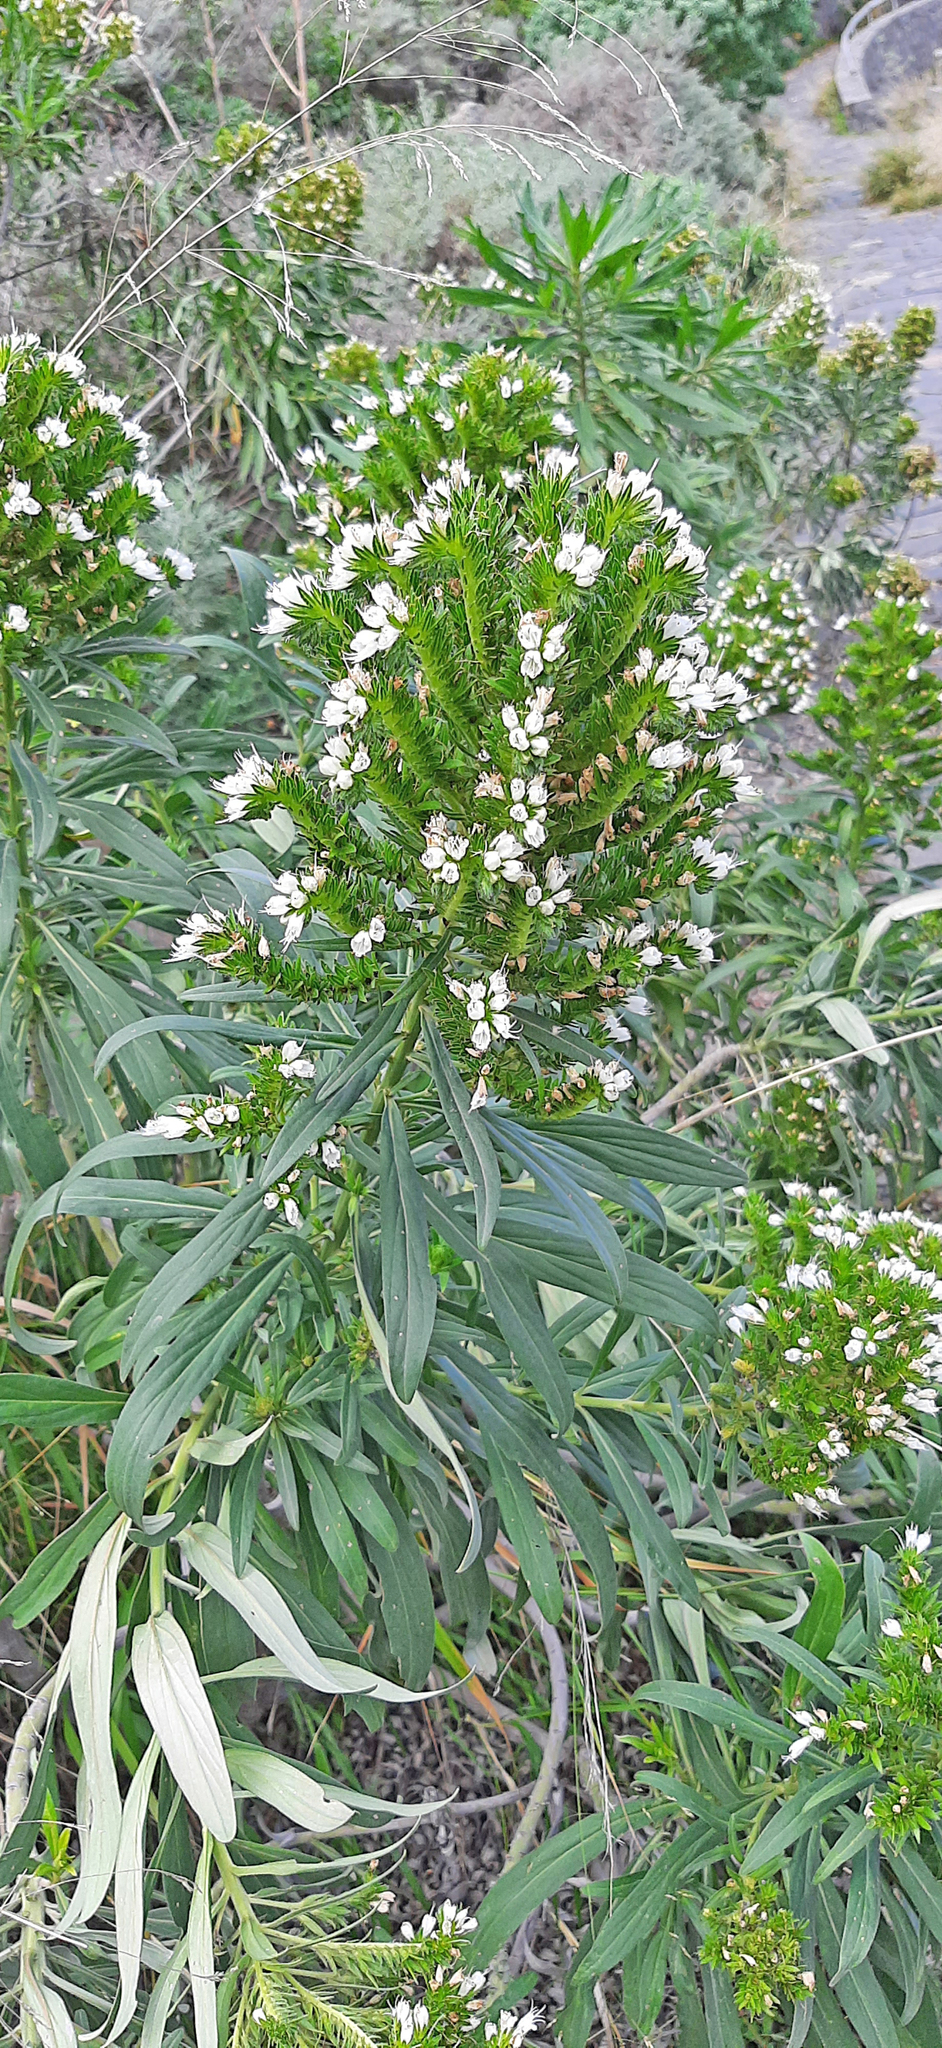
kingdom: Plantae
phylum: Tracheophyta
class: Magnoliopsida
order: Boraginales
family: Boraginaceae
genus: Echium
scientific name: Echium giganteum
